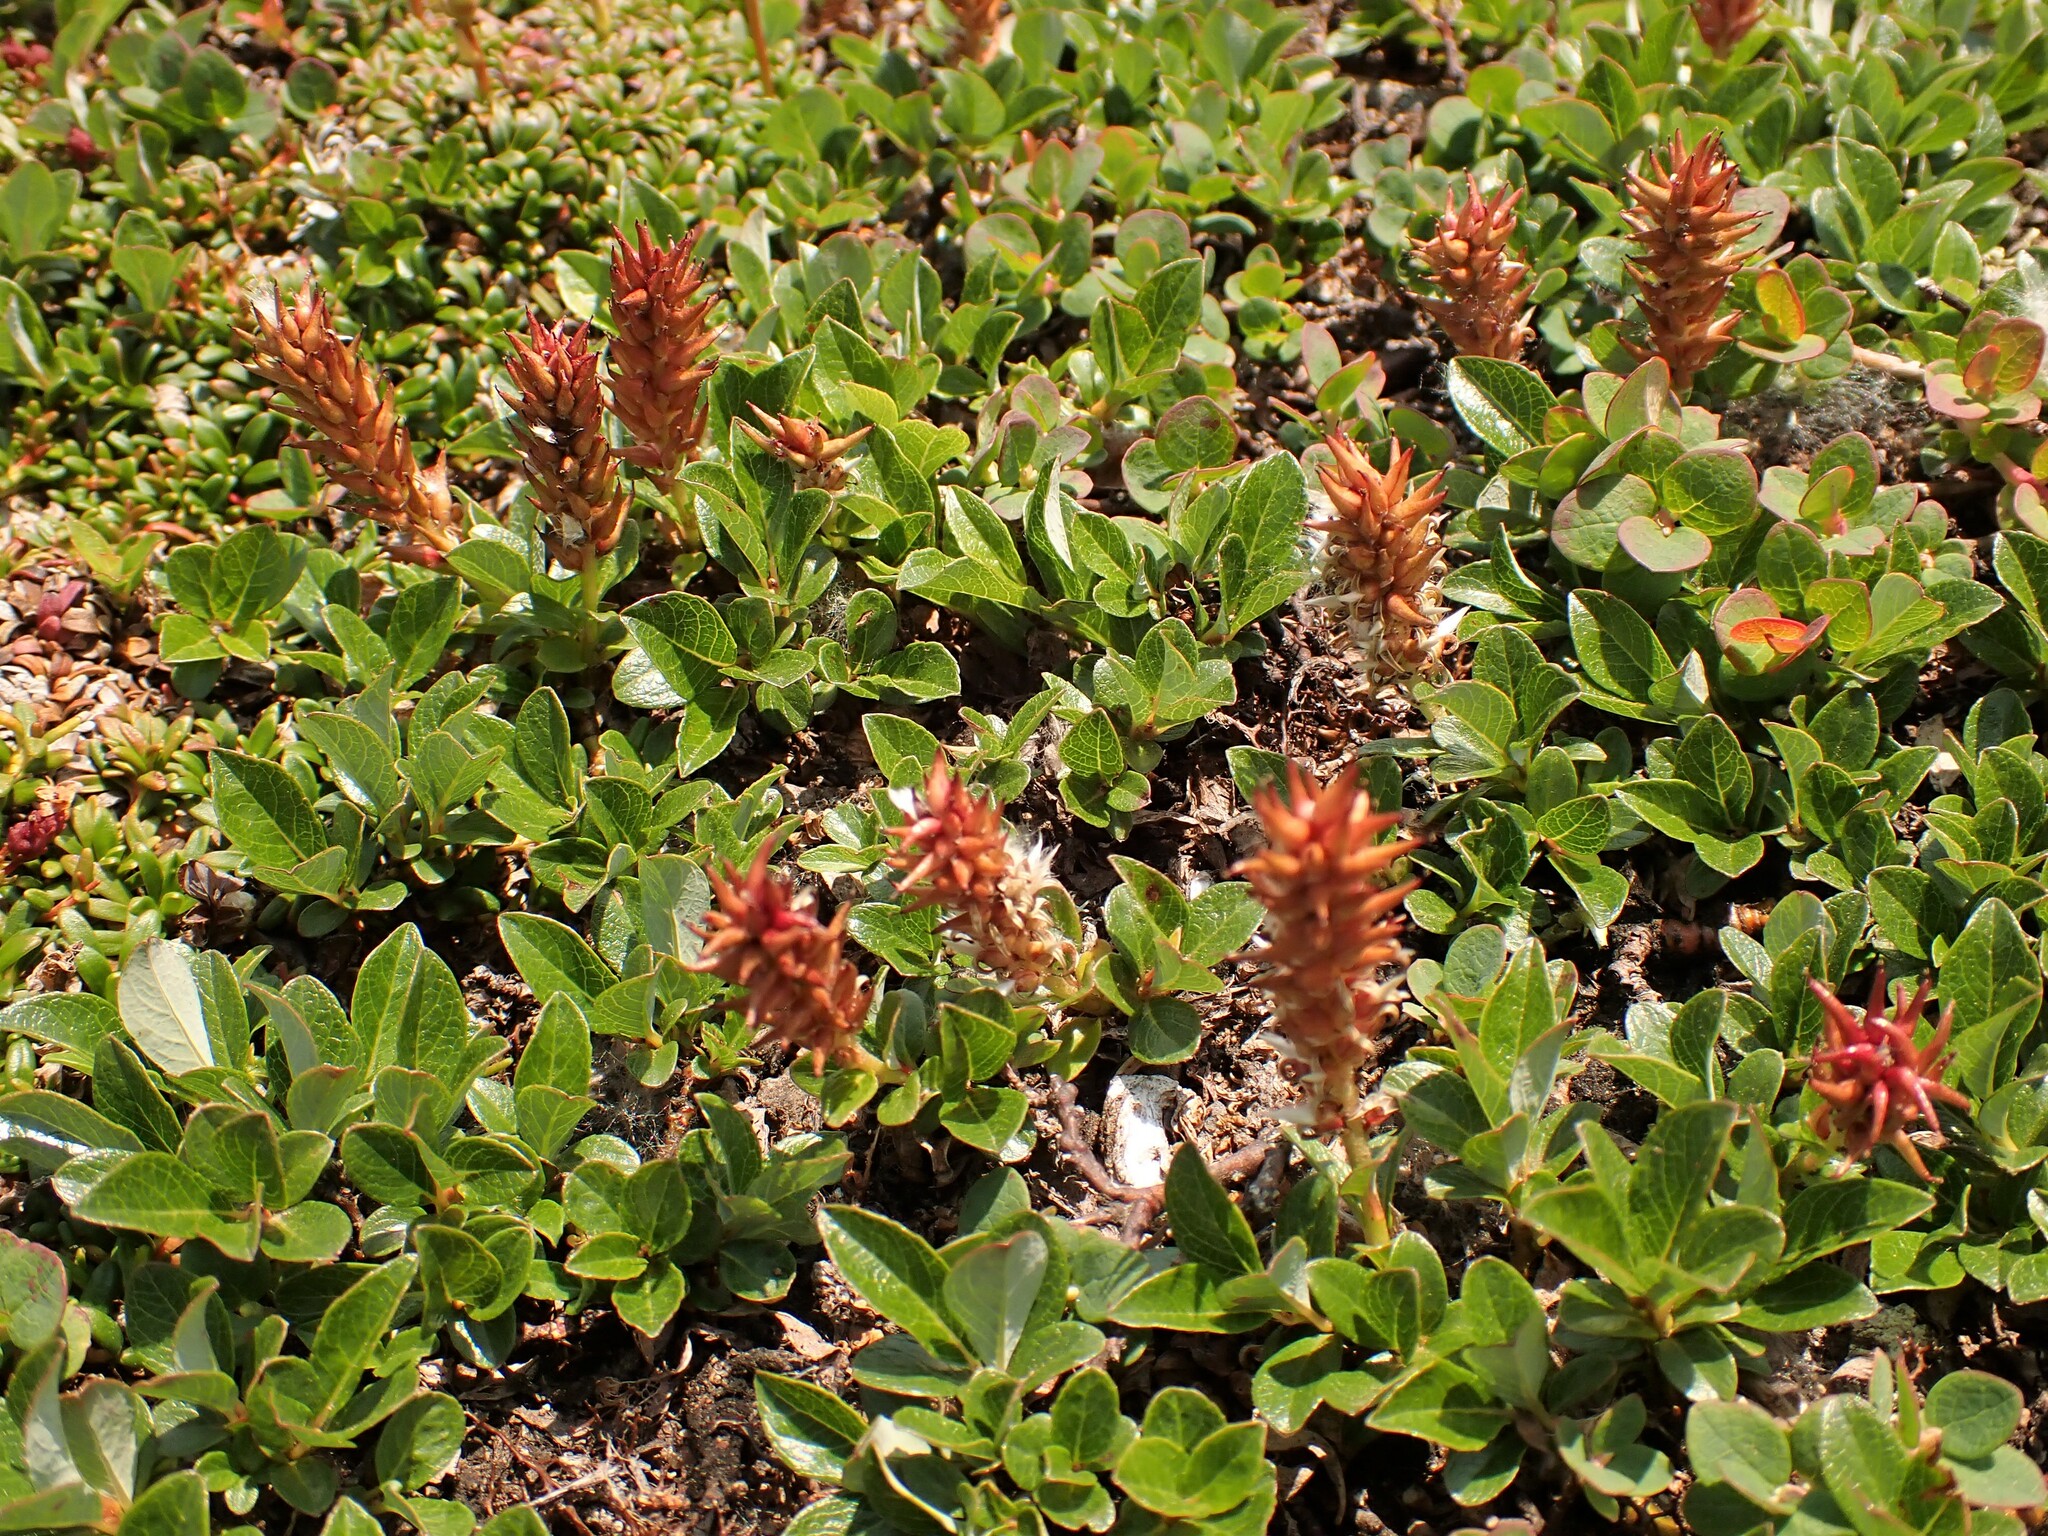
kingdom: Plantae
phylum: Tracheophyta
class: Magnoliopsida
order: Malpighiales
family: Salicaceae
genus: Salix
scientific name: Salix uva-ursi
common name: Bearberry willow
